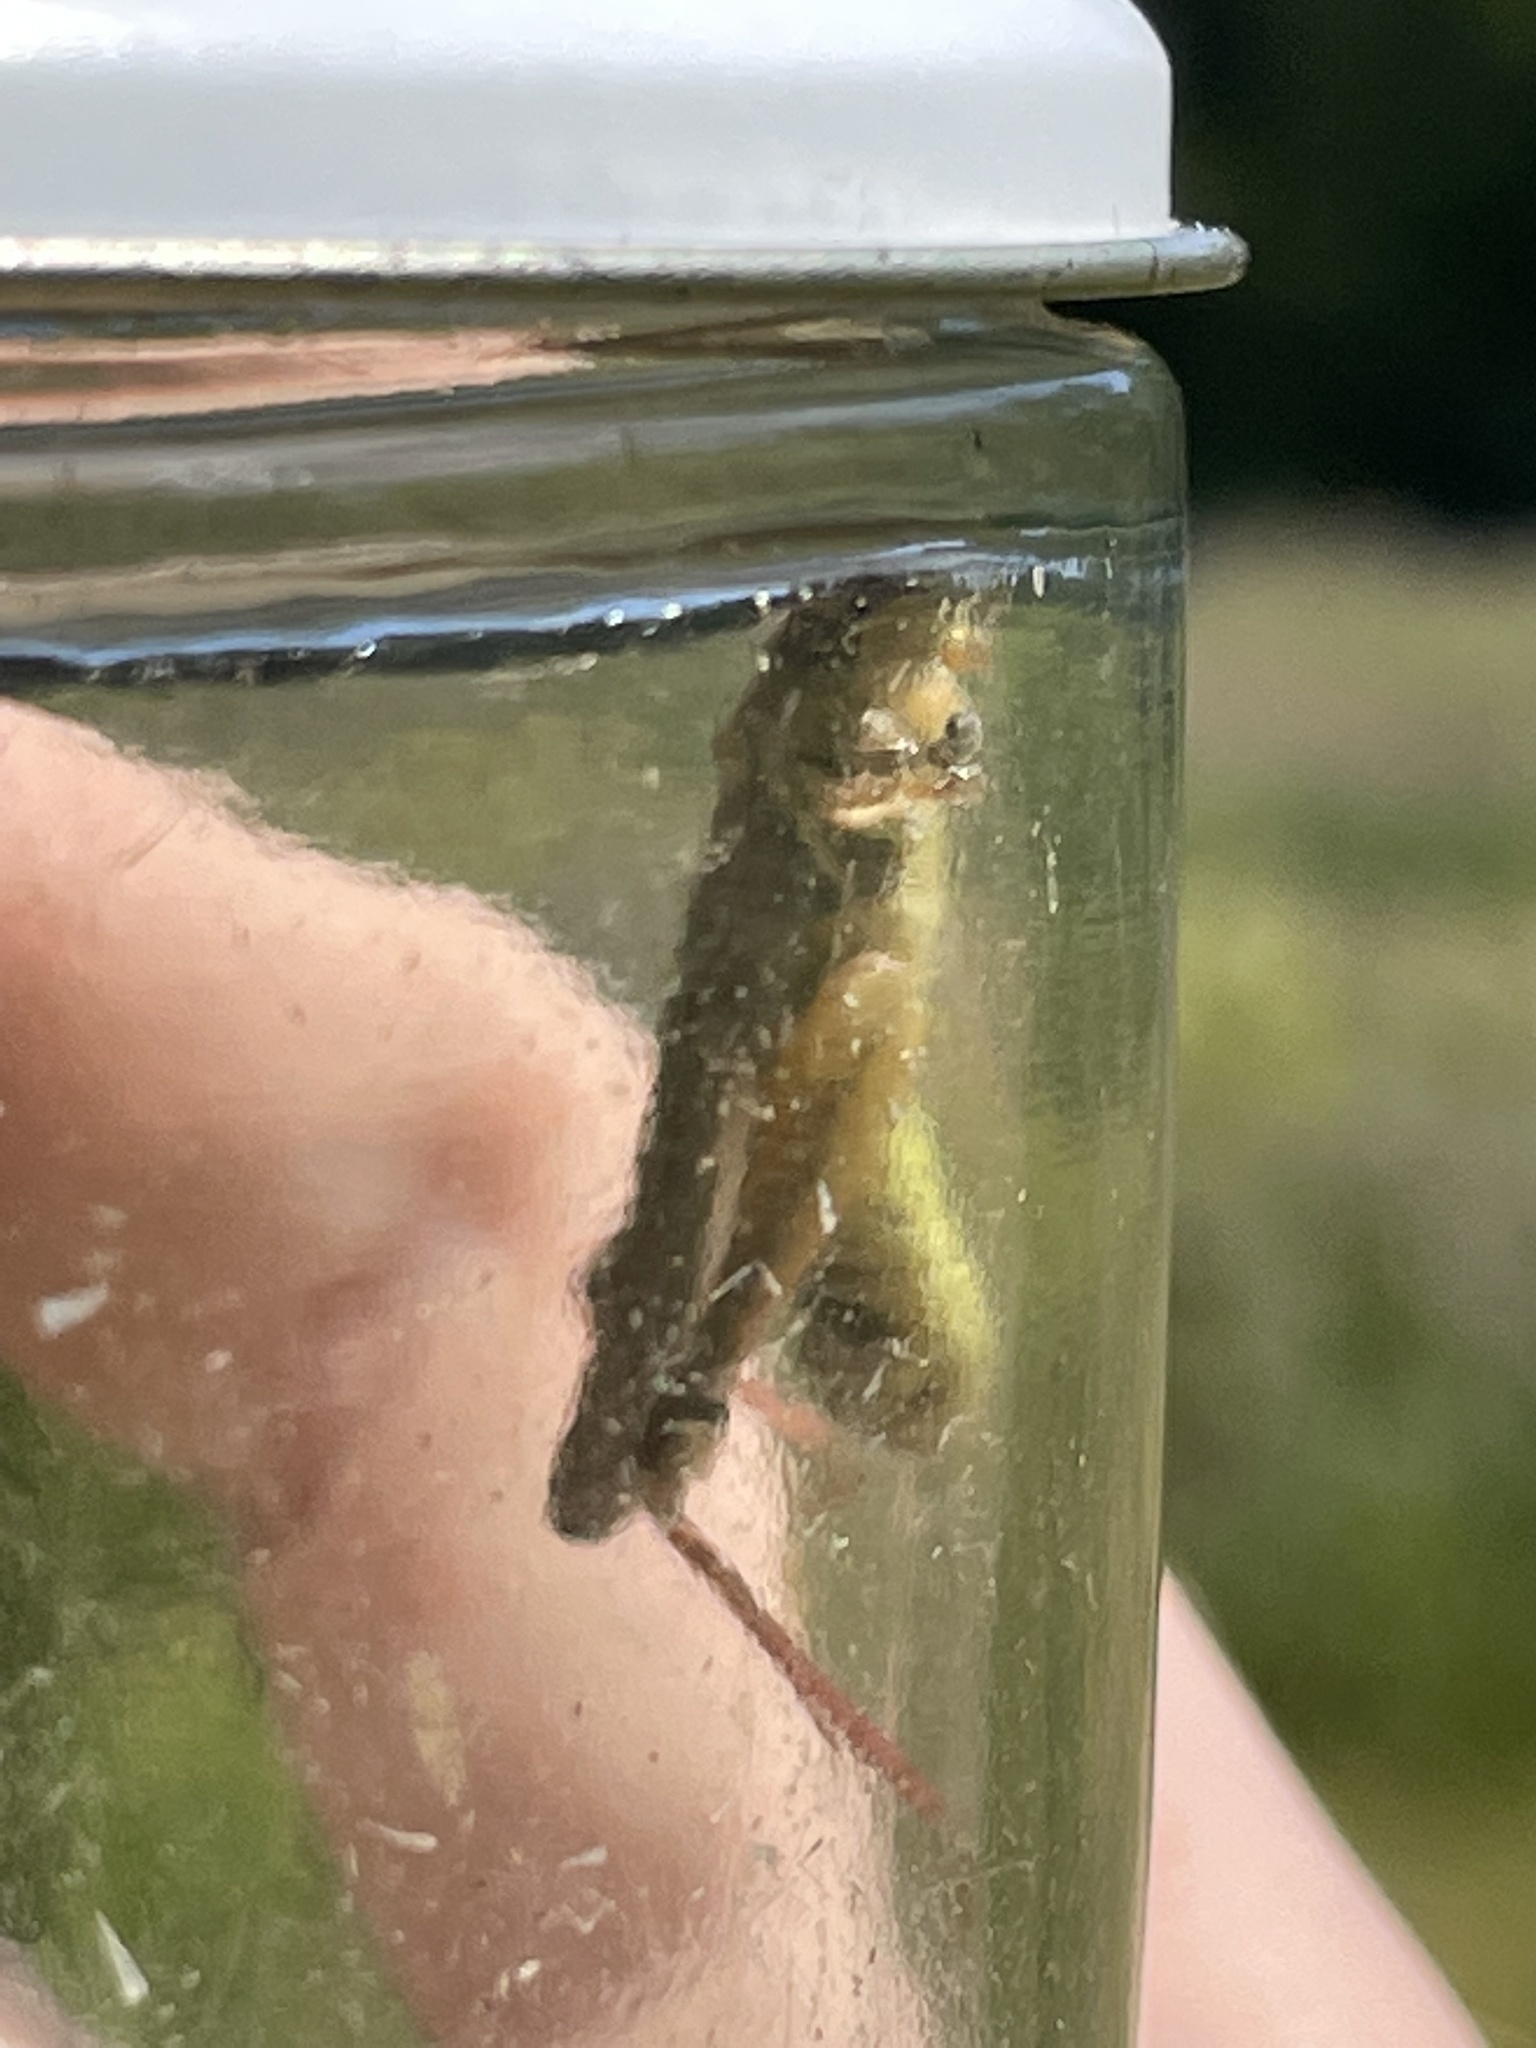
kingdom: Animalia
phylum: Arthropoda
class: Insecta
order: Orthoptera
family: Acrididae
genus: Melanoplus
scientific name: Melanoplus femurrubrum
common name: Red-legged grasshopper
